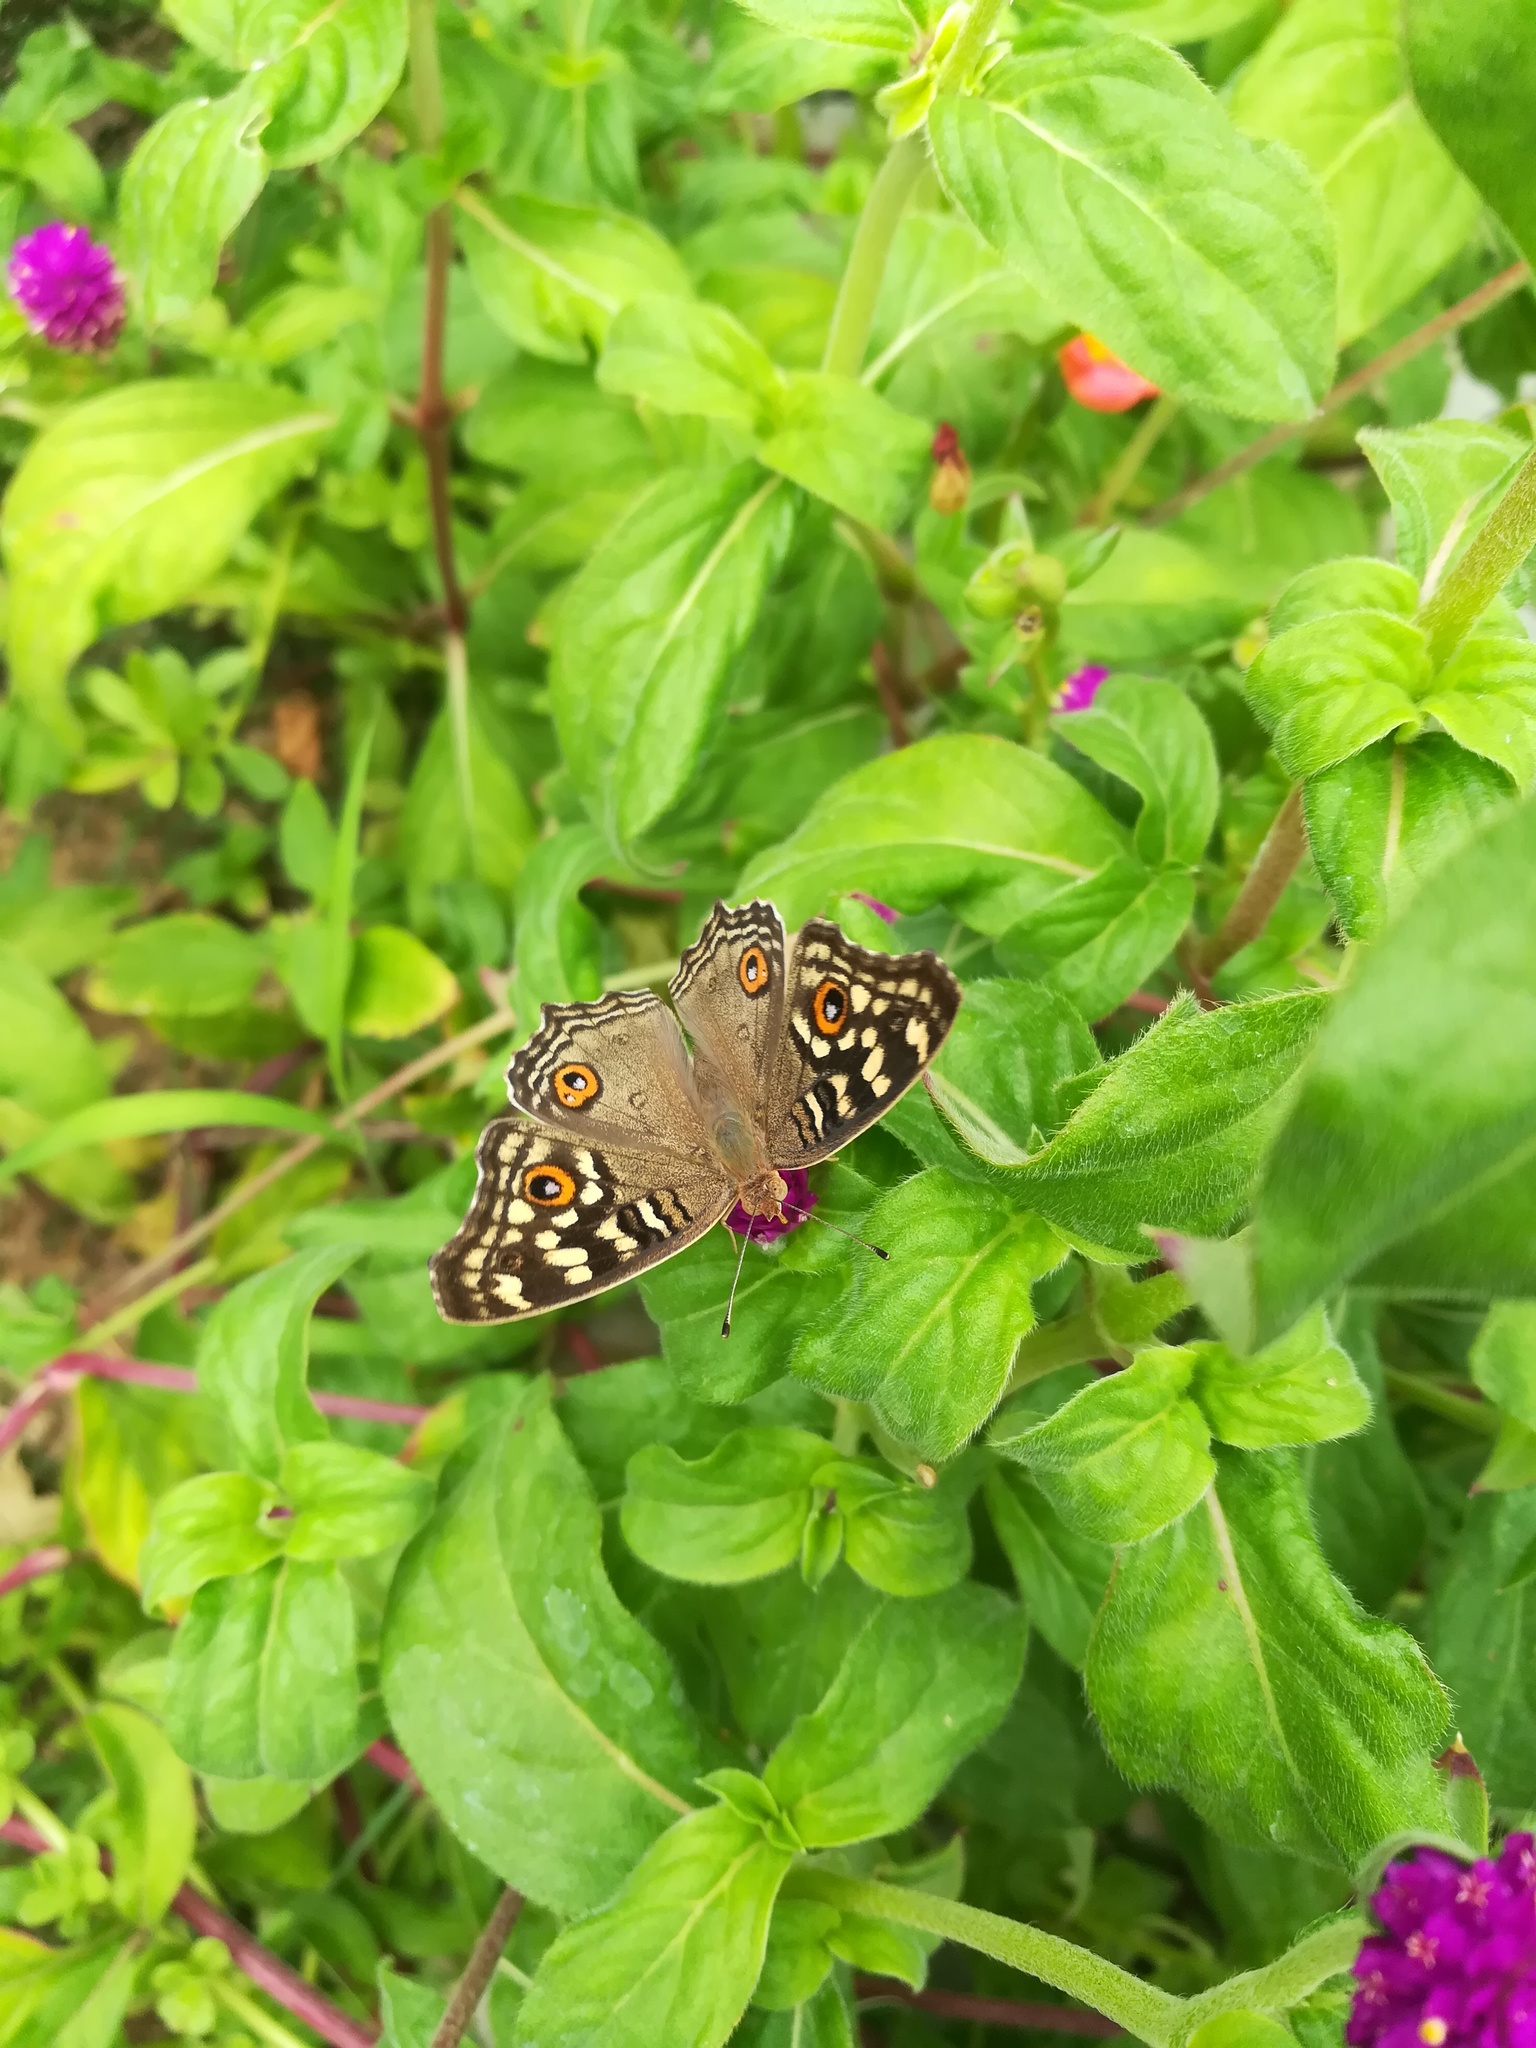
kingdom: Animalia
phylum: Arthropoda
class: Insecta
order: Lepidoptera
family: Nymphalidae
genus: Junonia
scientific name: Junonia lemonias
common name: Lemon pansy
